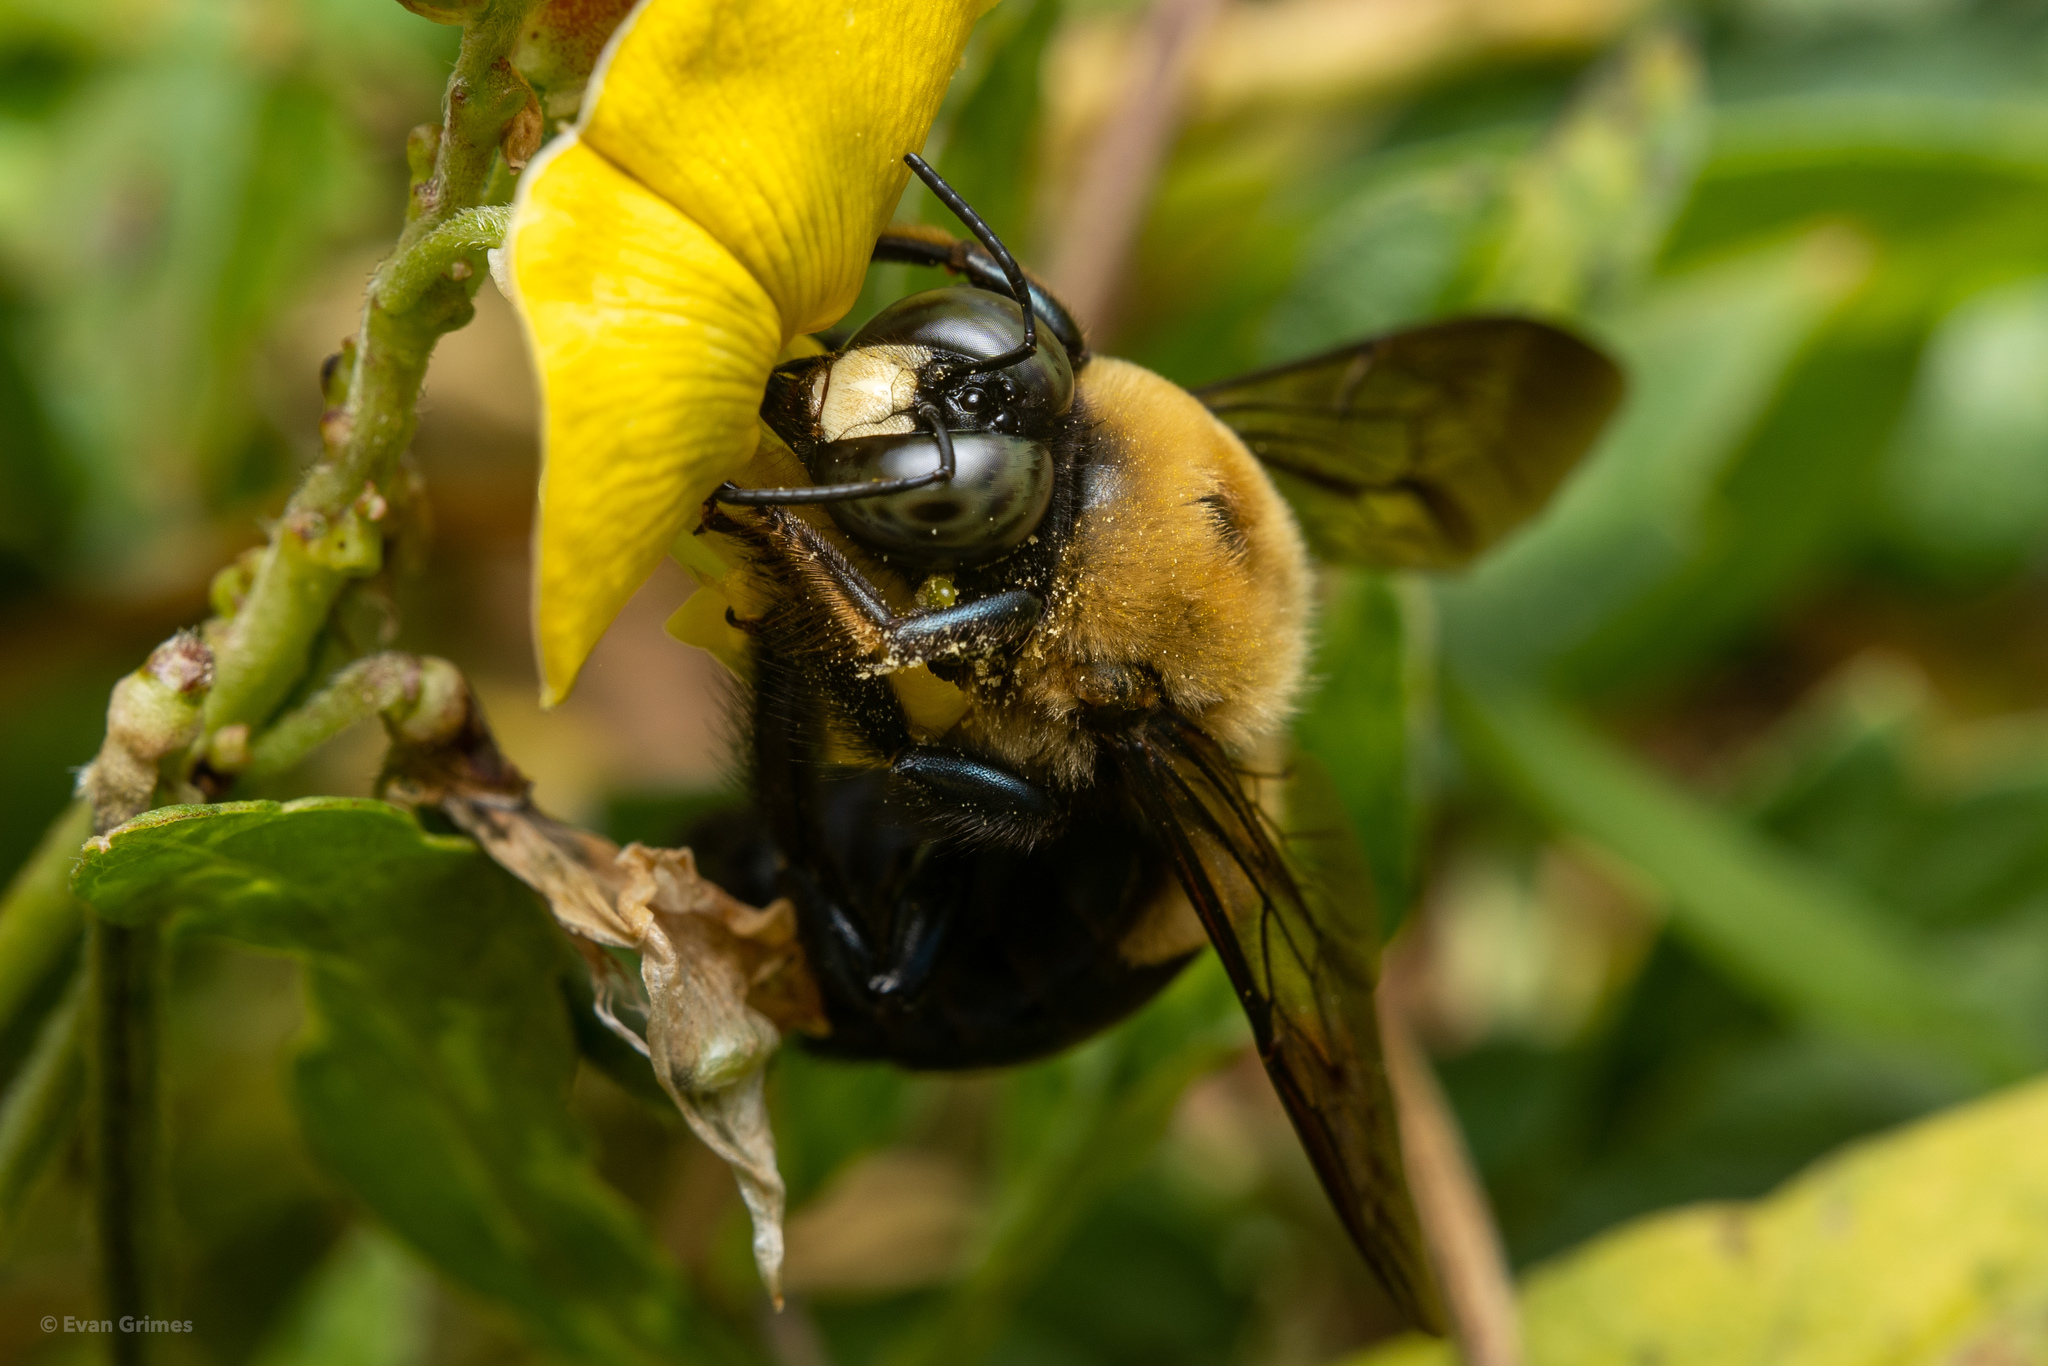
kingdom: Animalia
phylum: Arthropoda
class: Insecta
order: Hymenoptera
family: Apidae
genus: Xylocopa
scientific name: Xylocopa virginica
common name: Carpenter bee
